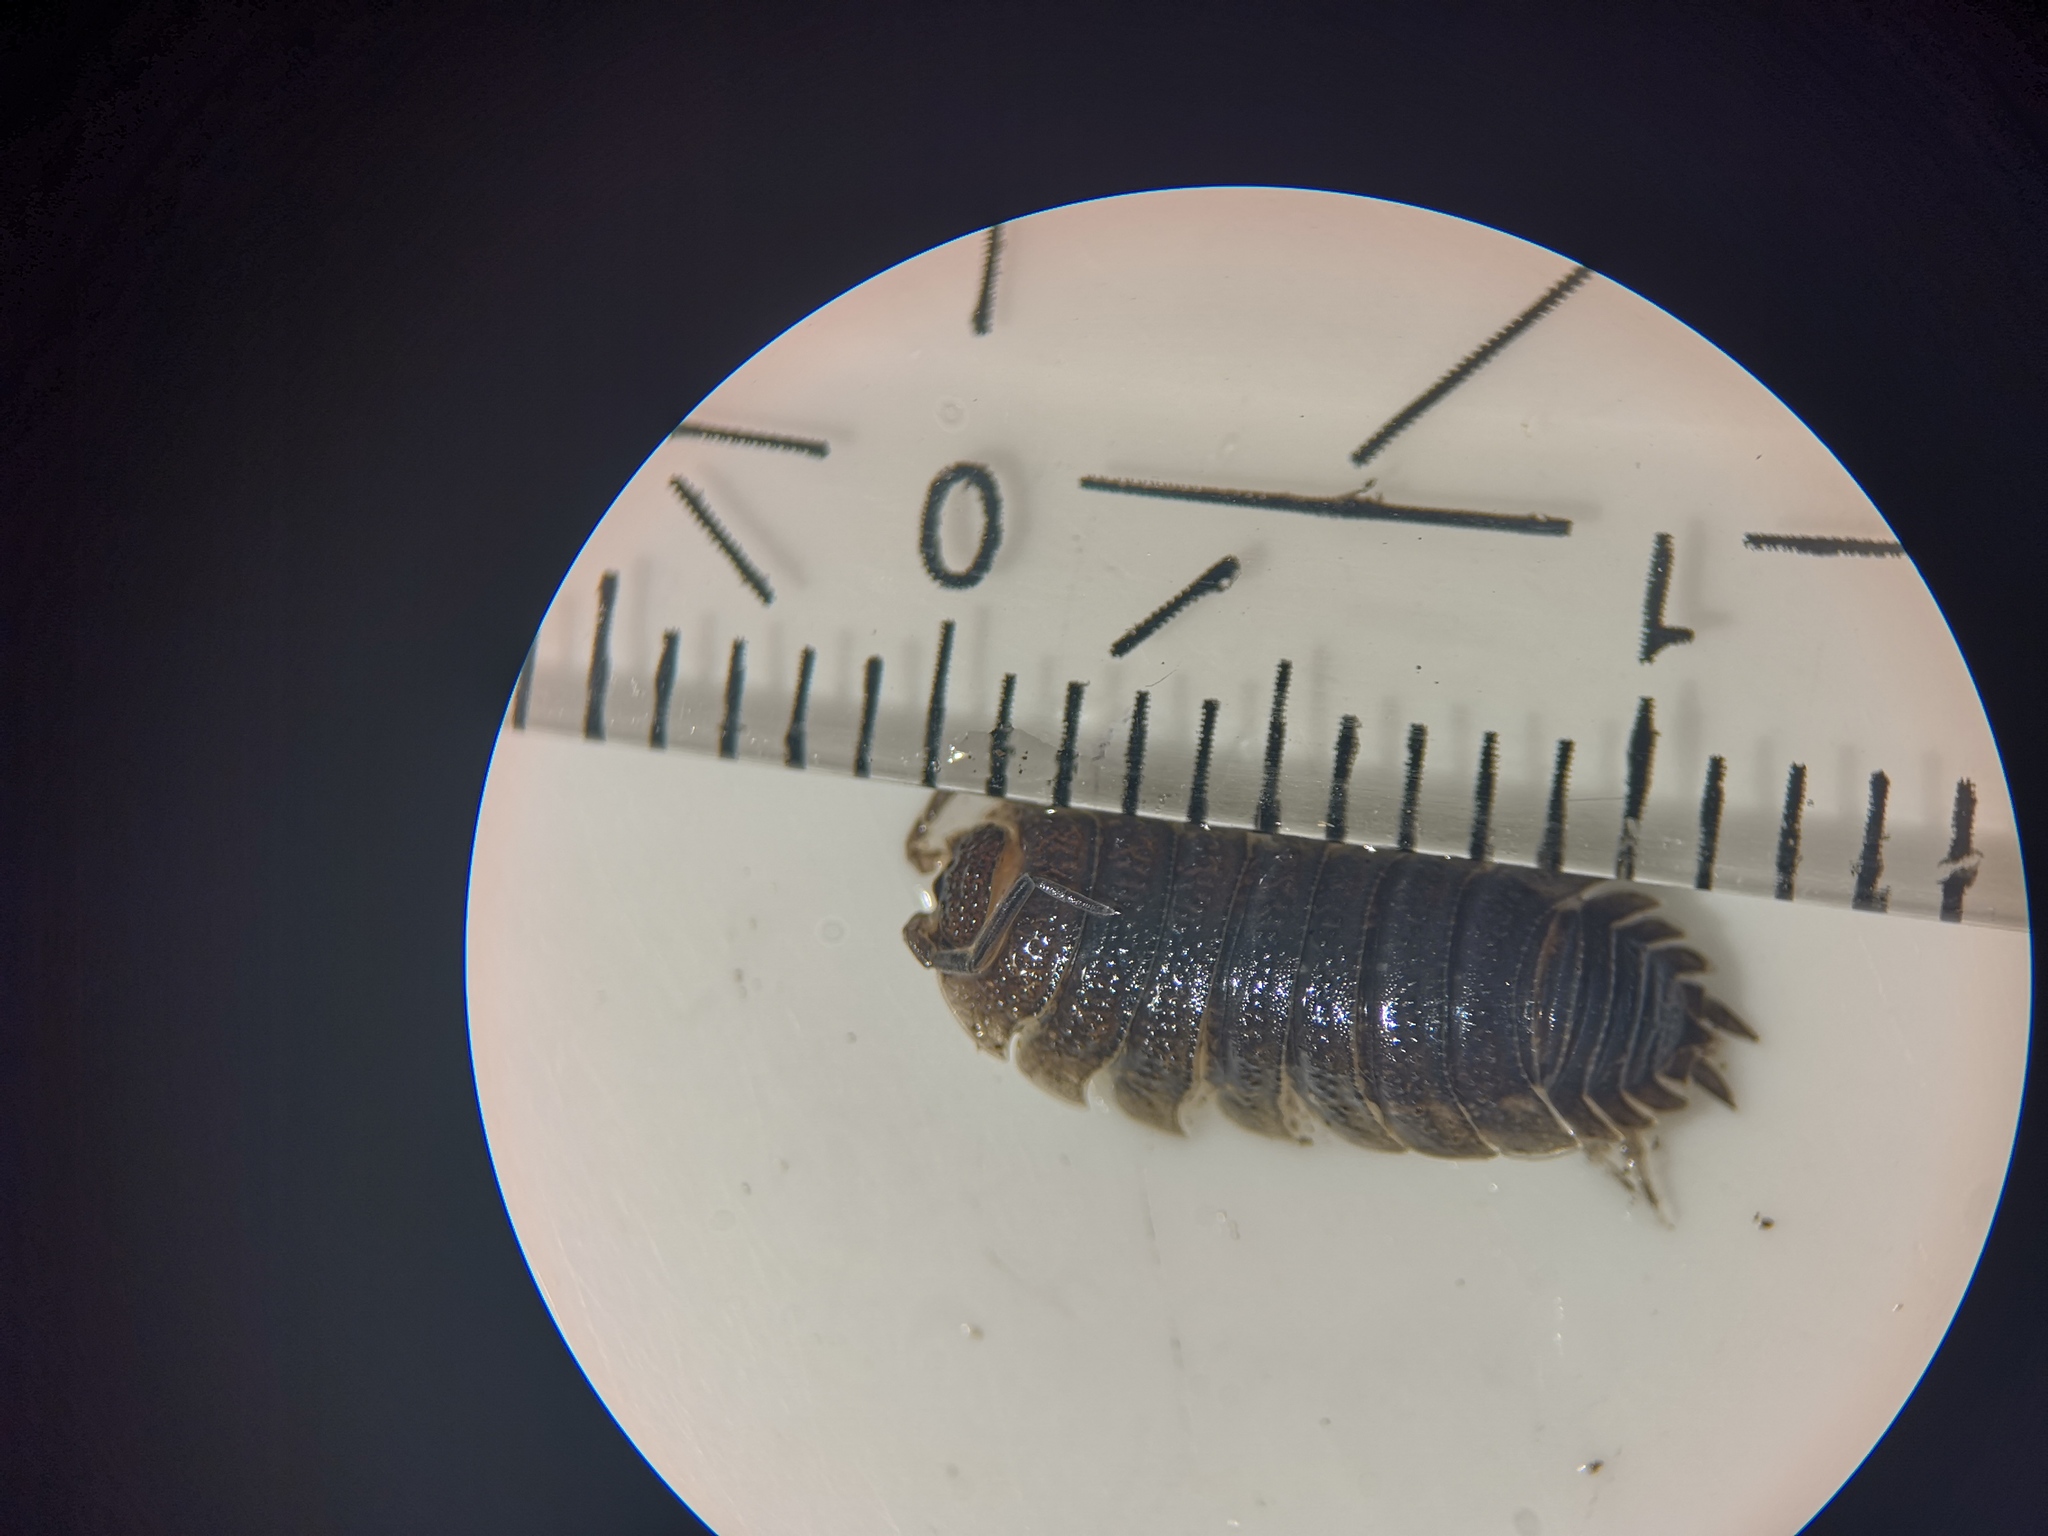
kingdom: Animalia
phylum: Arthropoda
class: Malacostraca
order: Isopoda
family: Porcellionidae
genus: Porcellio
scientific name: Porcellio scaber
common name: Common rough woodlouse
